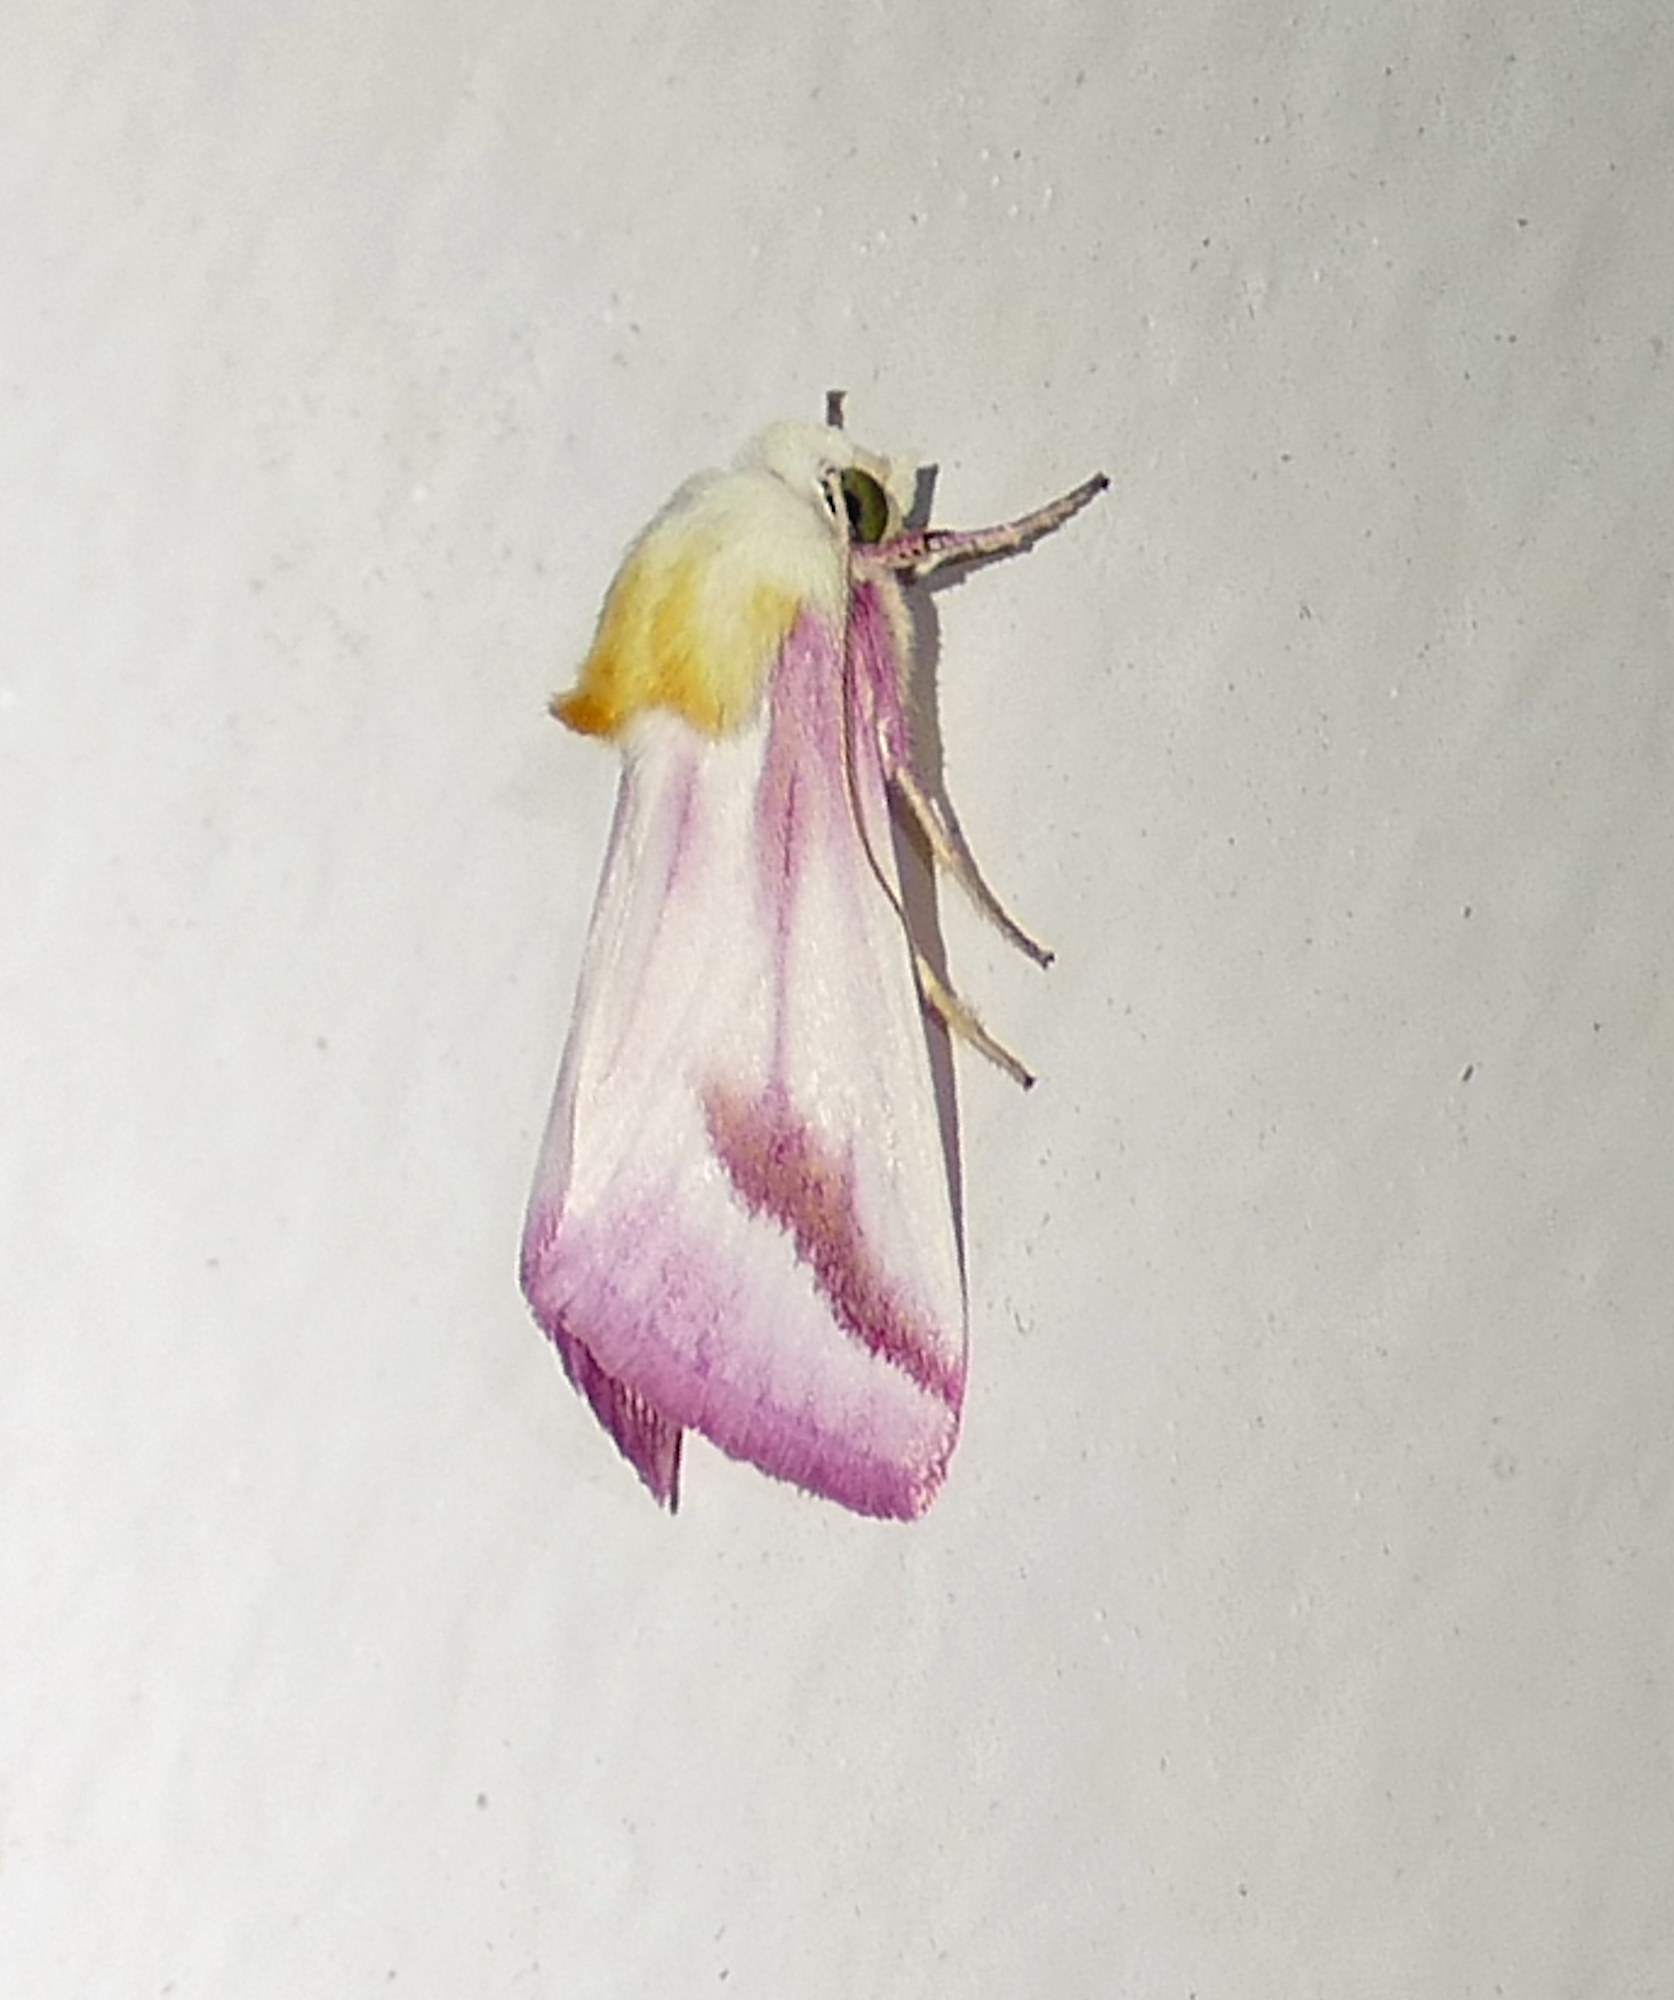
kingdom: Animalia
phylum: Arthropoda
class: Insecta
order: Lepidoptera
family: Noctuidae
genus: Schinia
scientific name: Schinia gaurae
